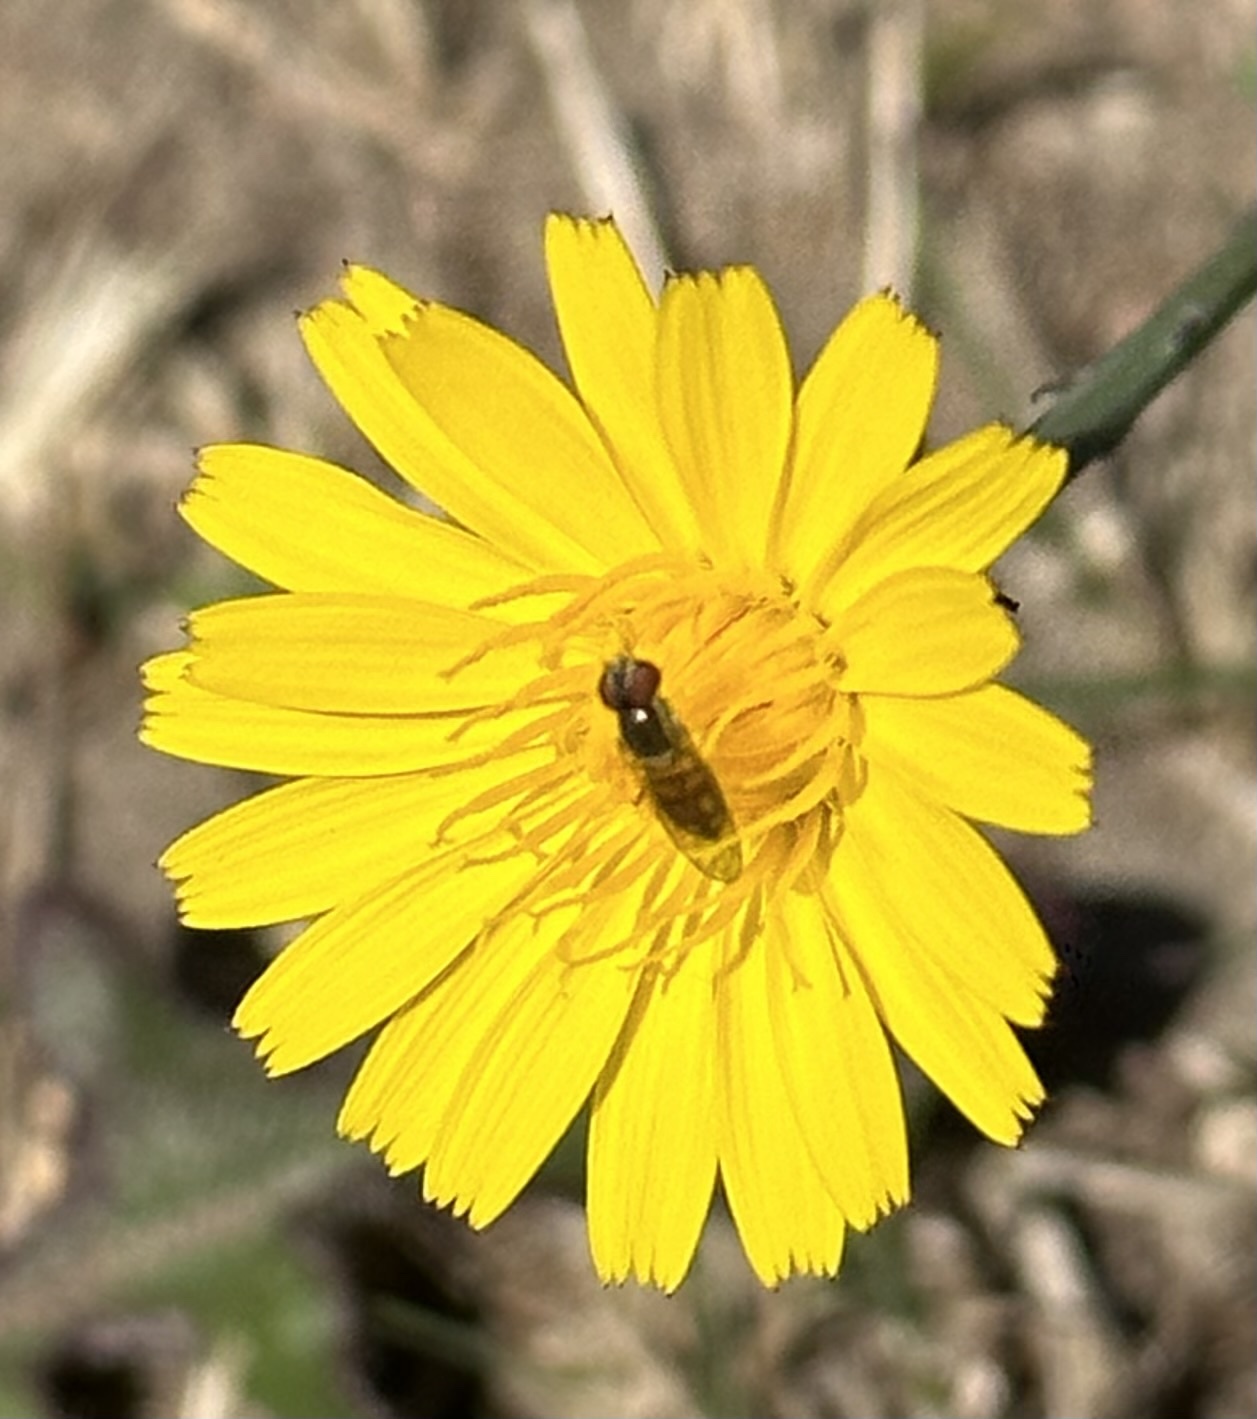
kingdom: Animalia
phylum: Arthropoda
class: Insecta
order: Diptera
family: Syrphidae
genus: Toxomerus
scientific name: Toxomerus marginatus
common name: Syrphid fly
